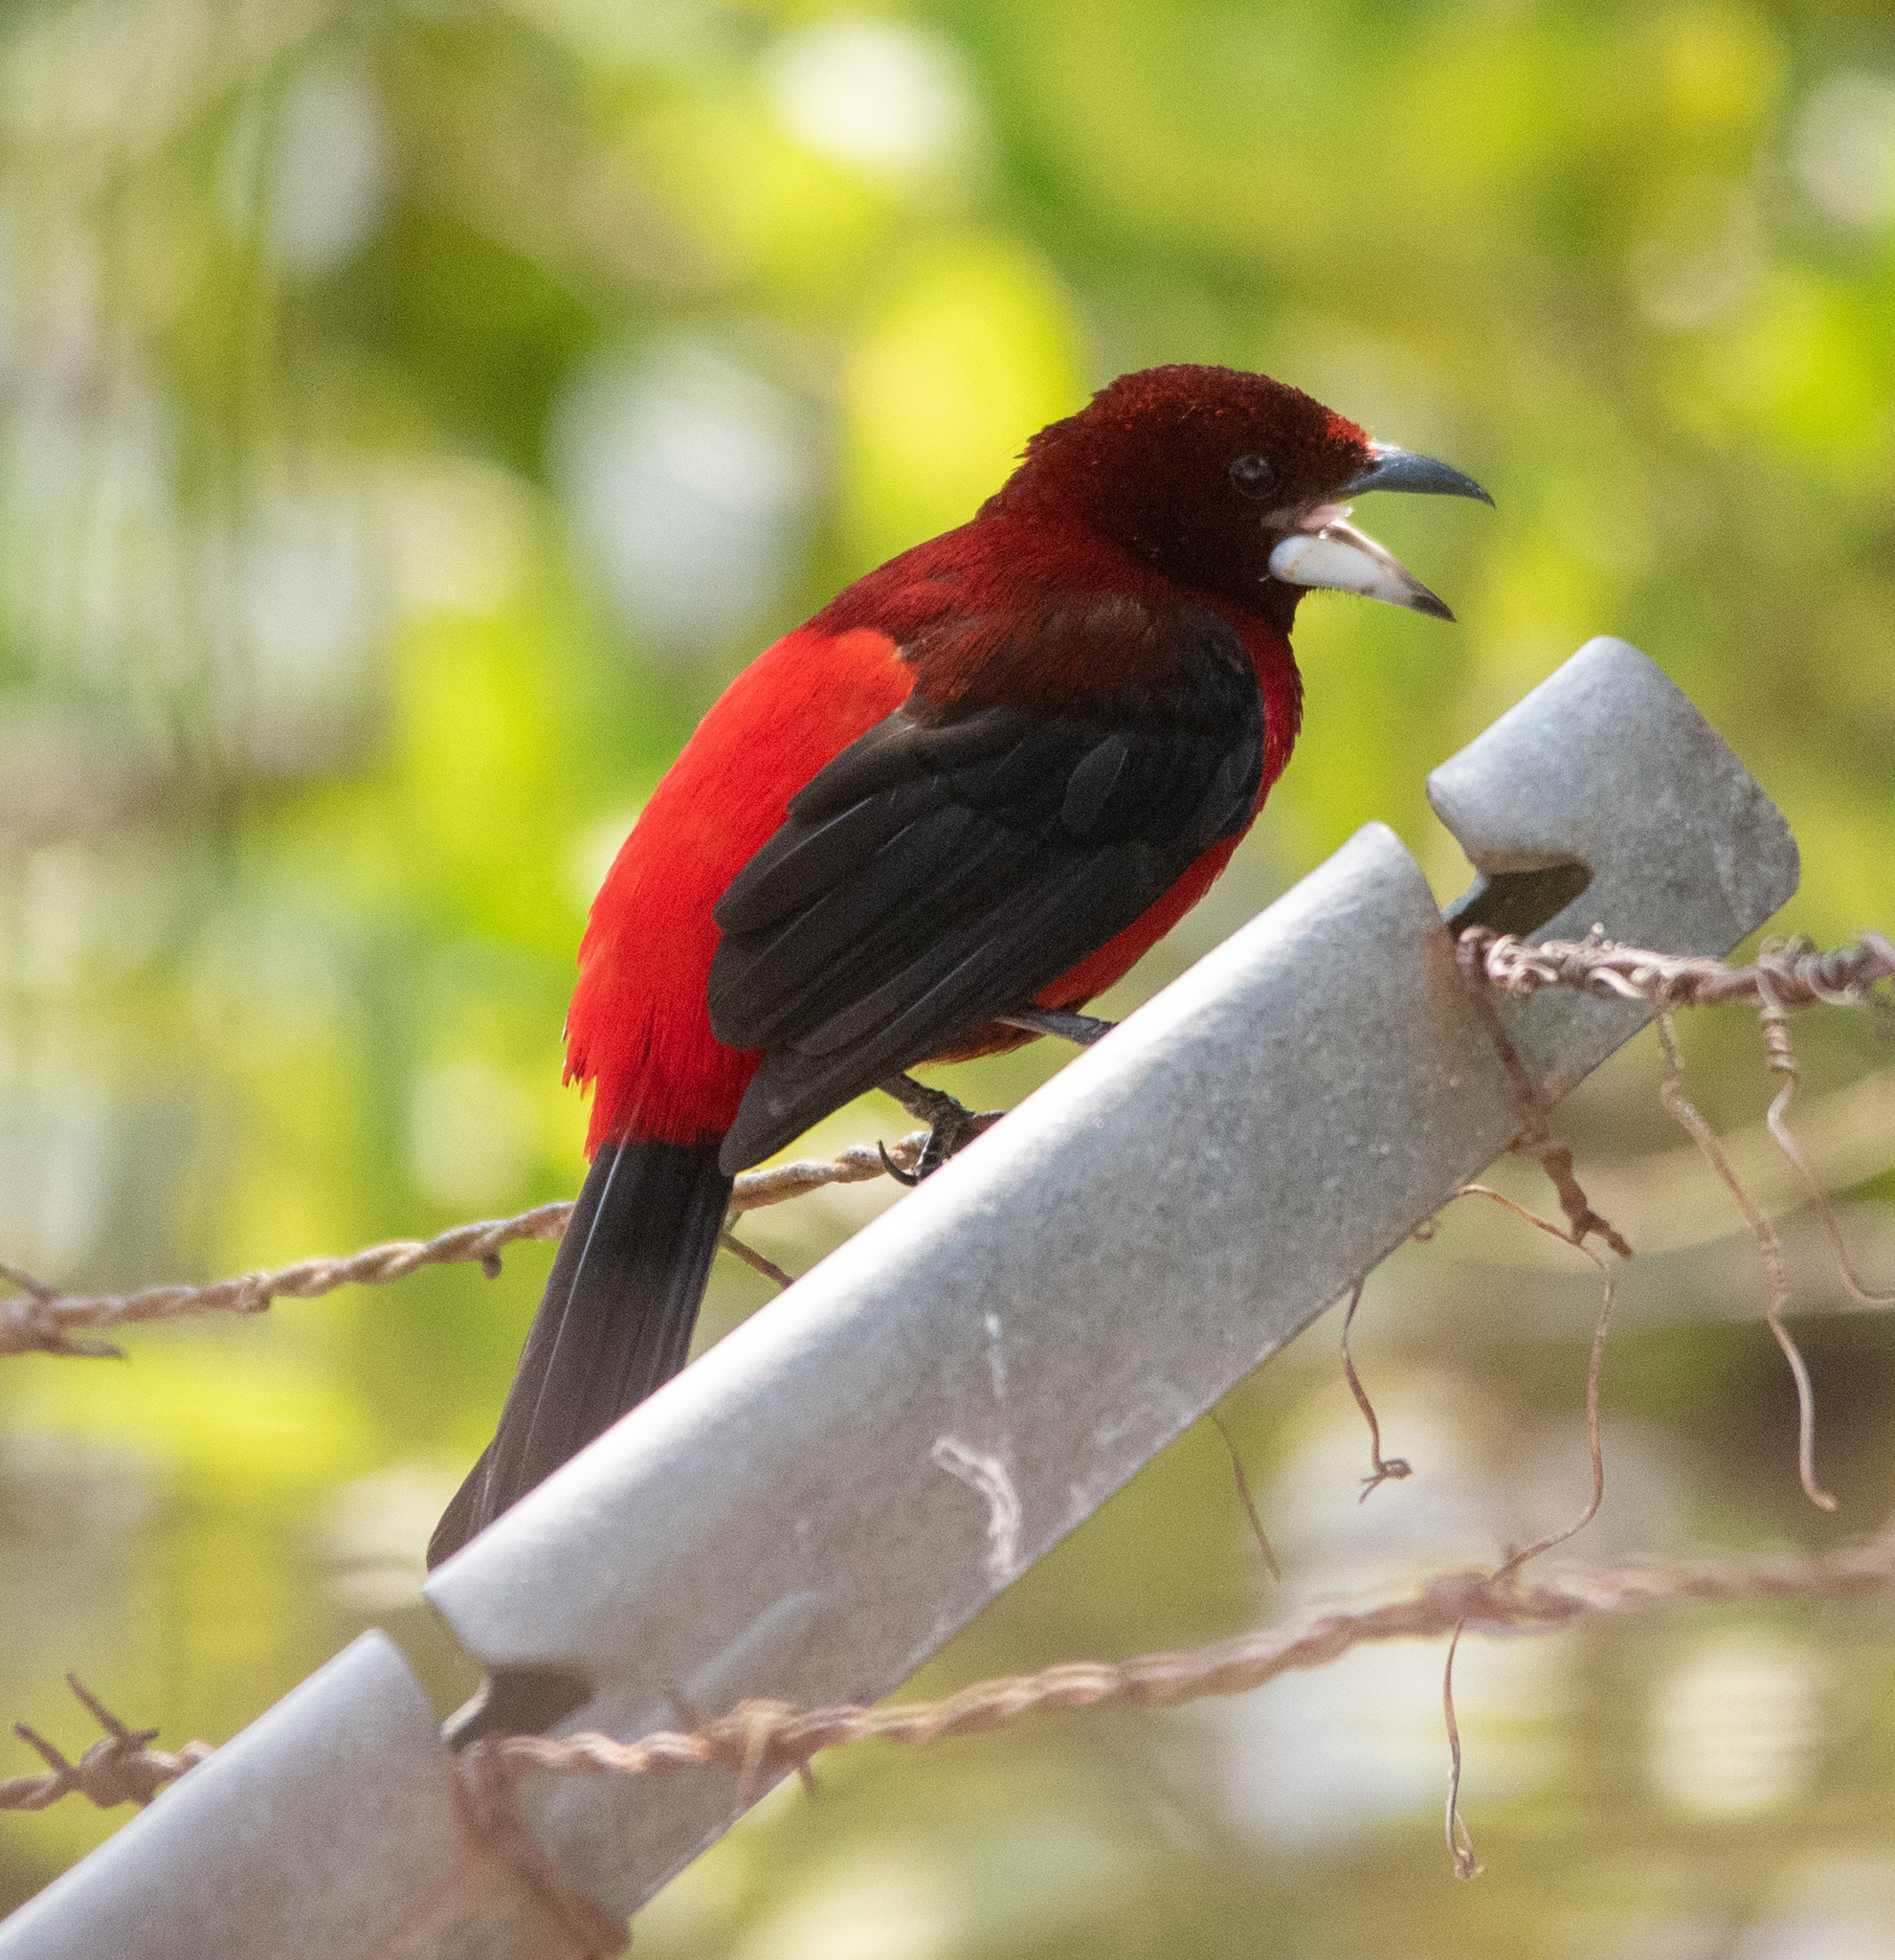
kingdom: Animalia
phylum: Chordata
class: Aves
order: Passeriformes
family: Thraupidae
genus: Ramphocelus
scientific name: Ramphocelus dimidiatus
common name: Crimson-backed tanager
